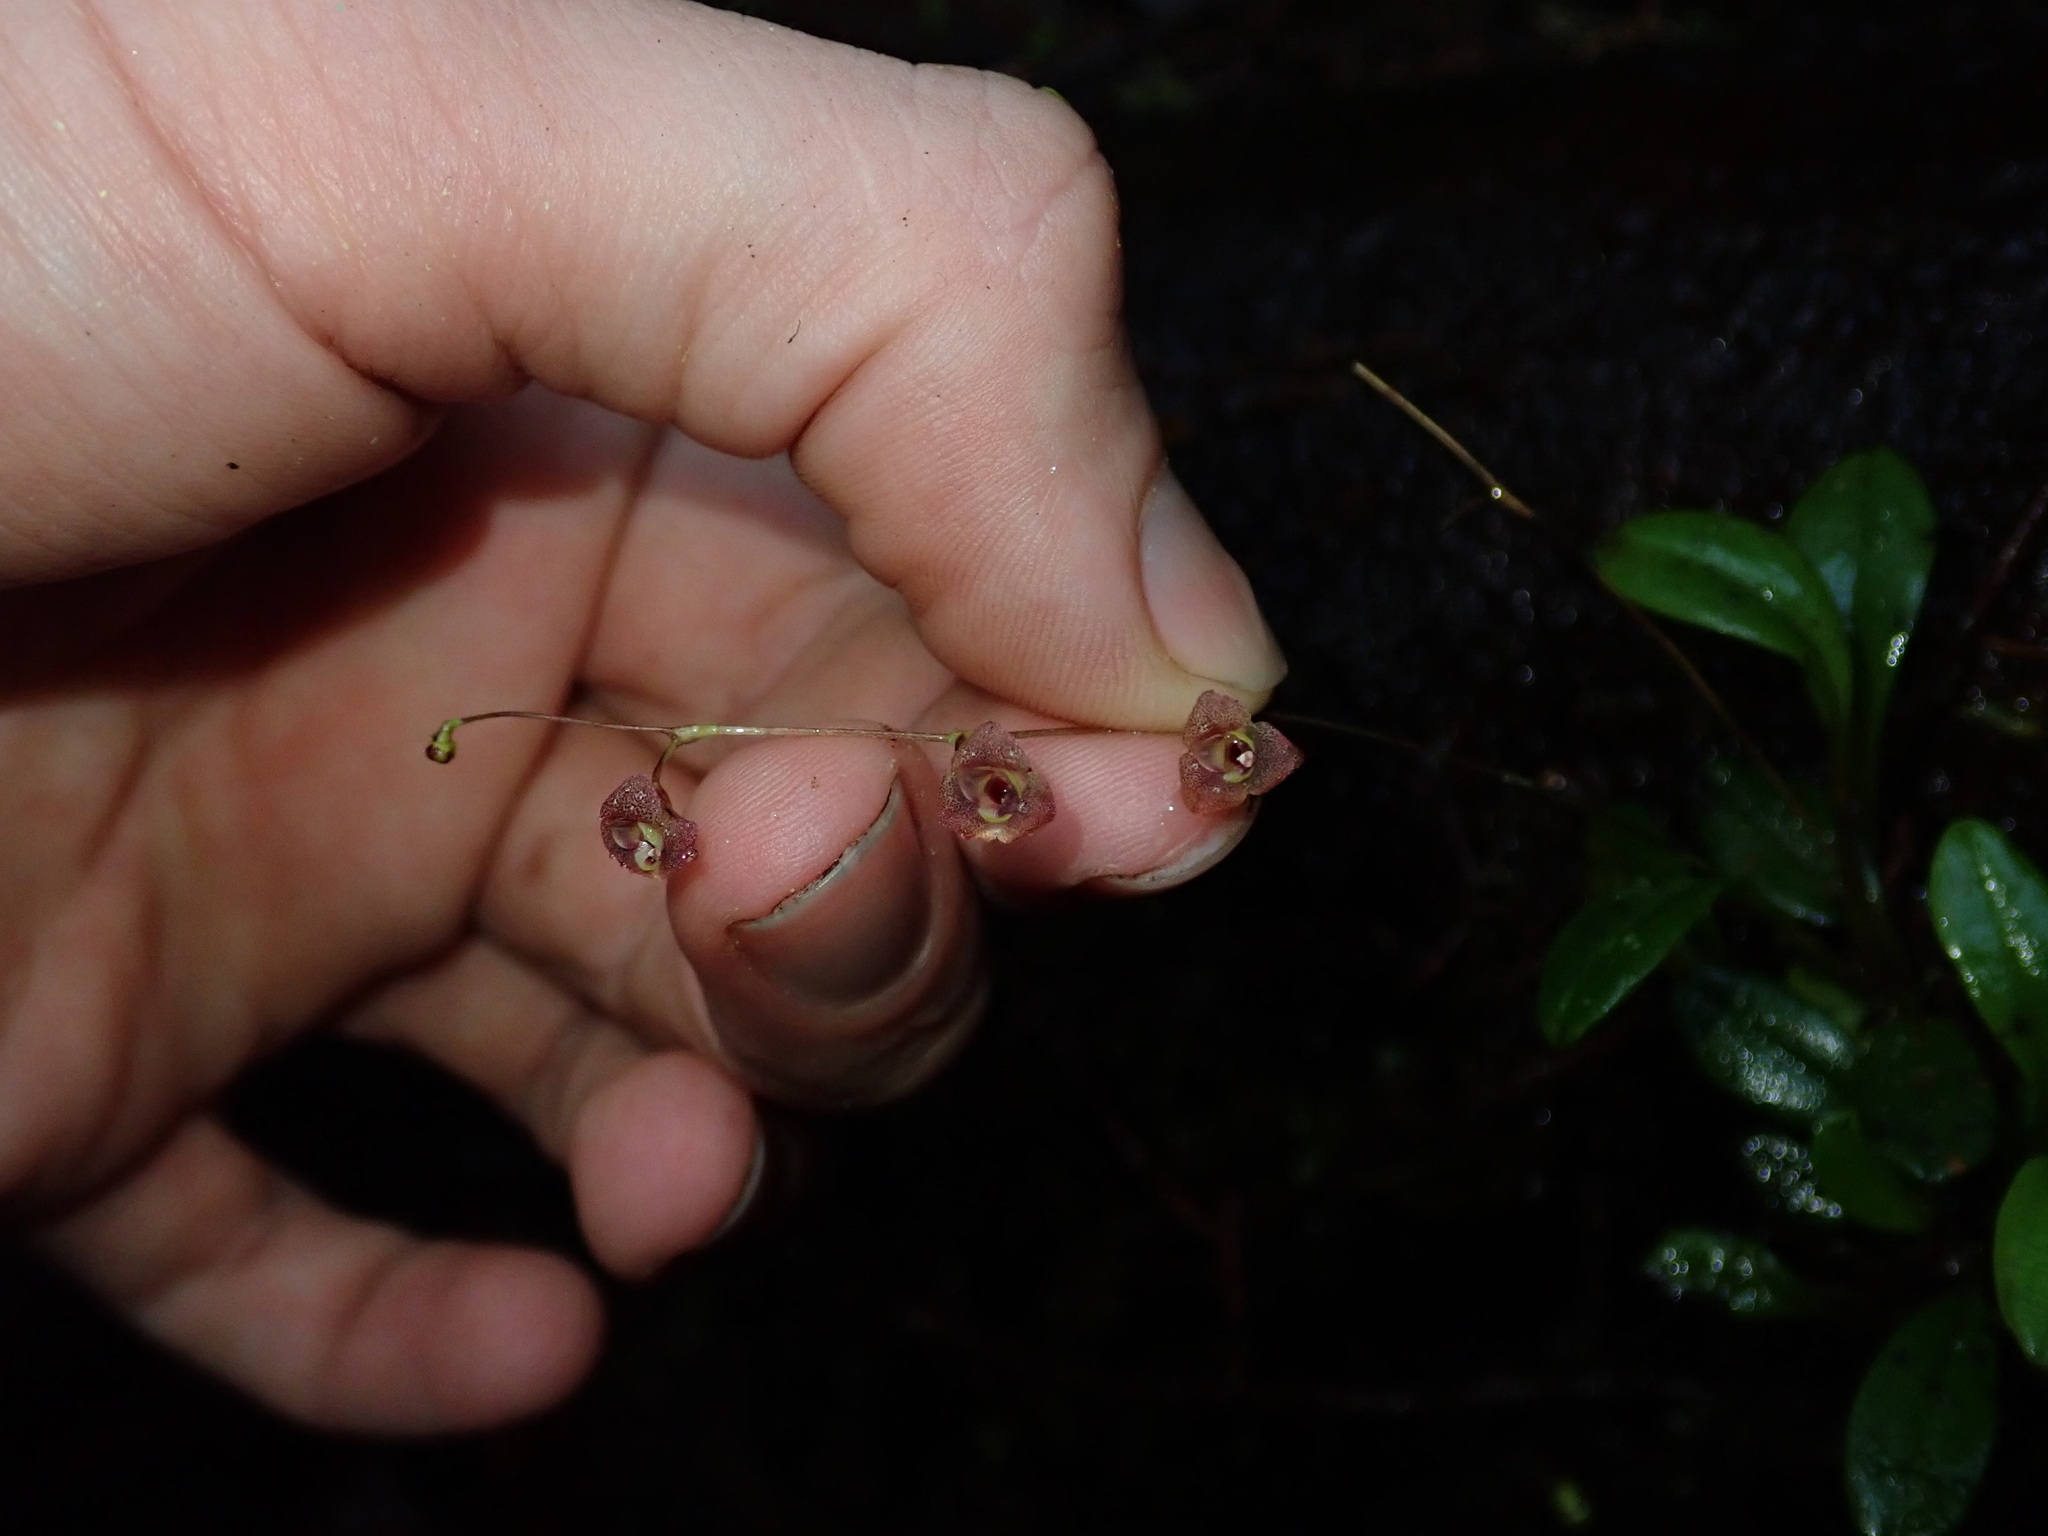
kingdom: Plantae
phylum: Tracheophyta
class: Liliopsida
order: Asparagales
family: Orchidaceae
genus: Stelis
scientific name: Stelis hirtzii
